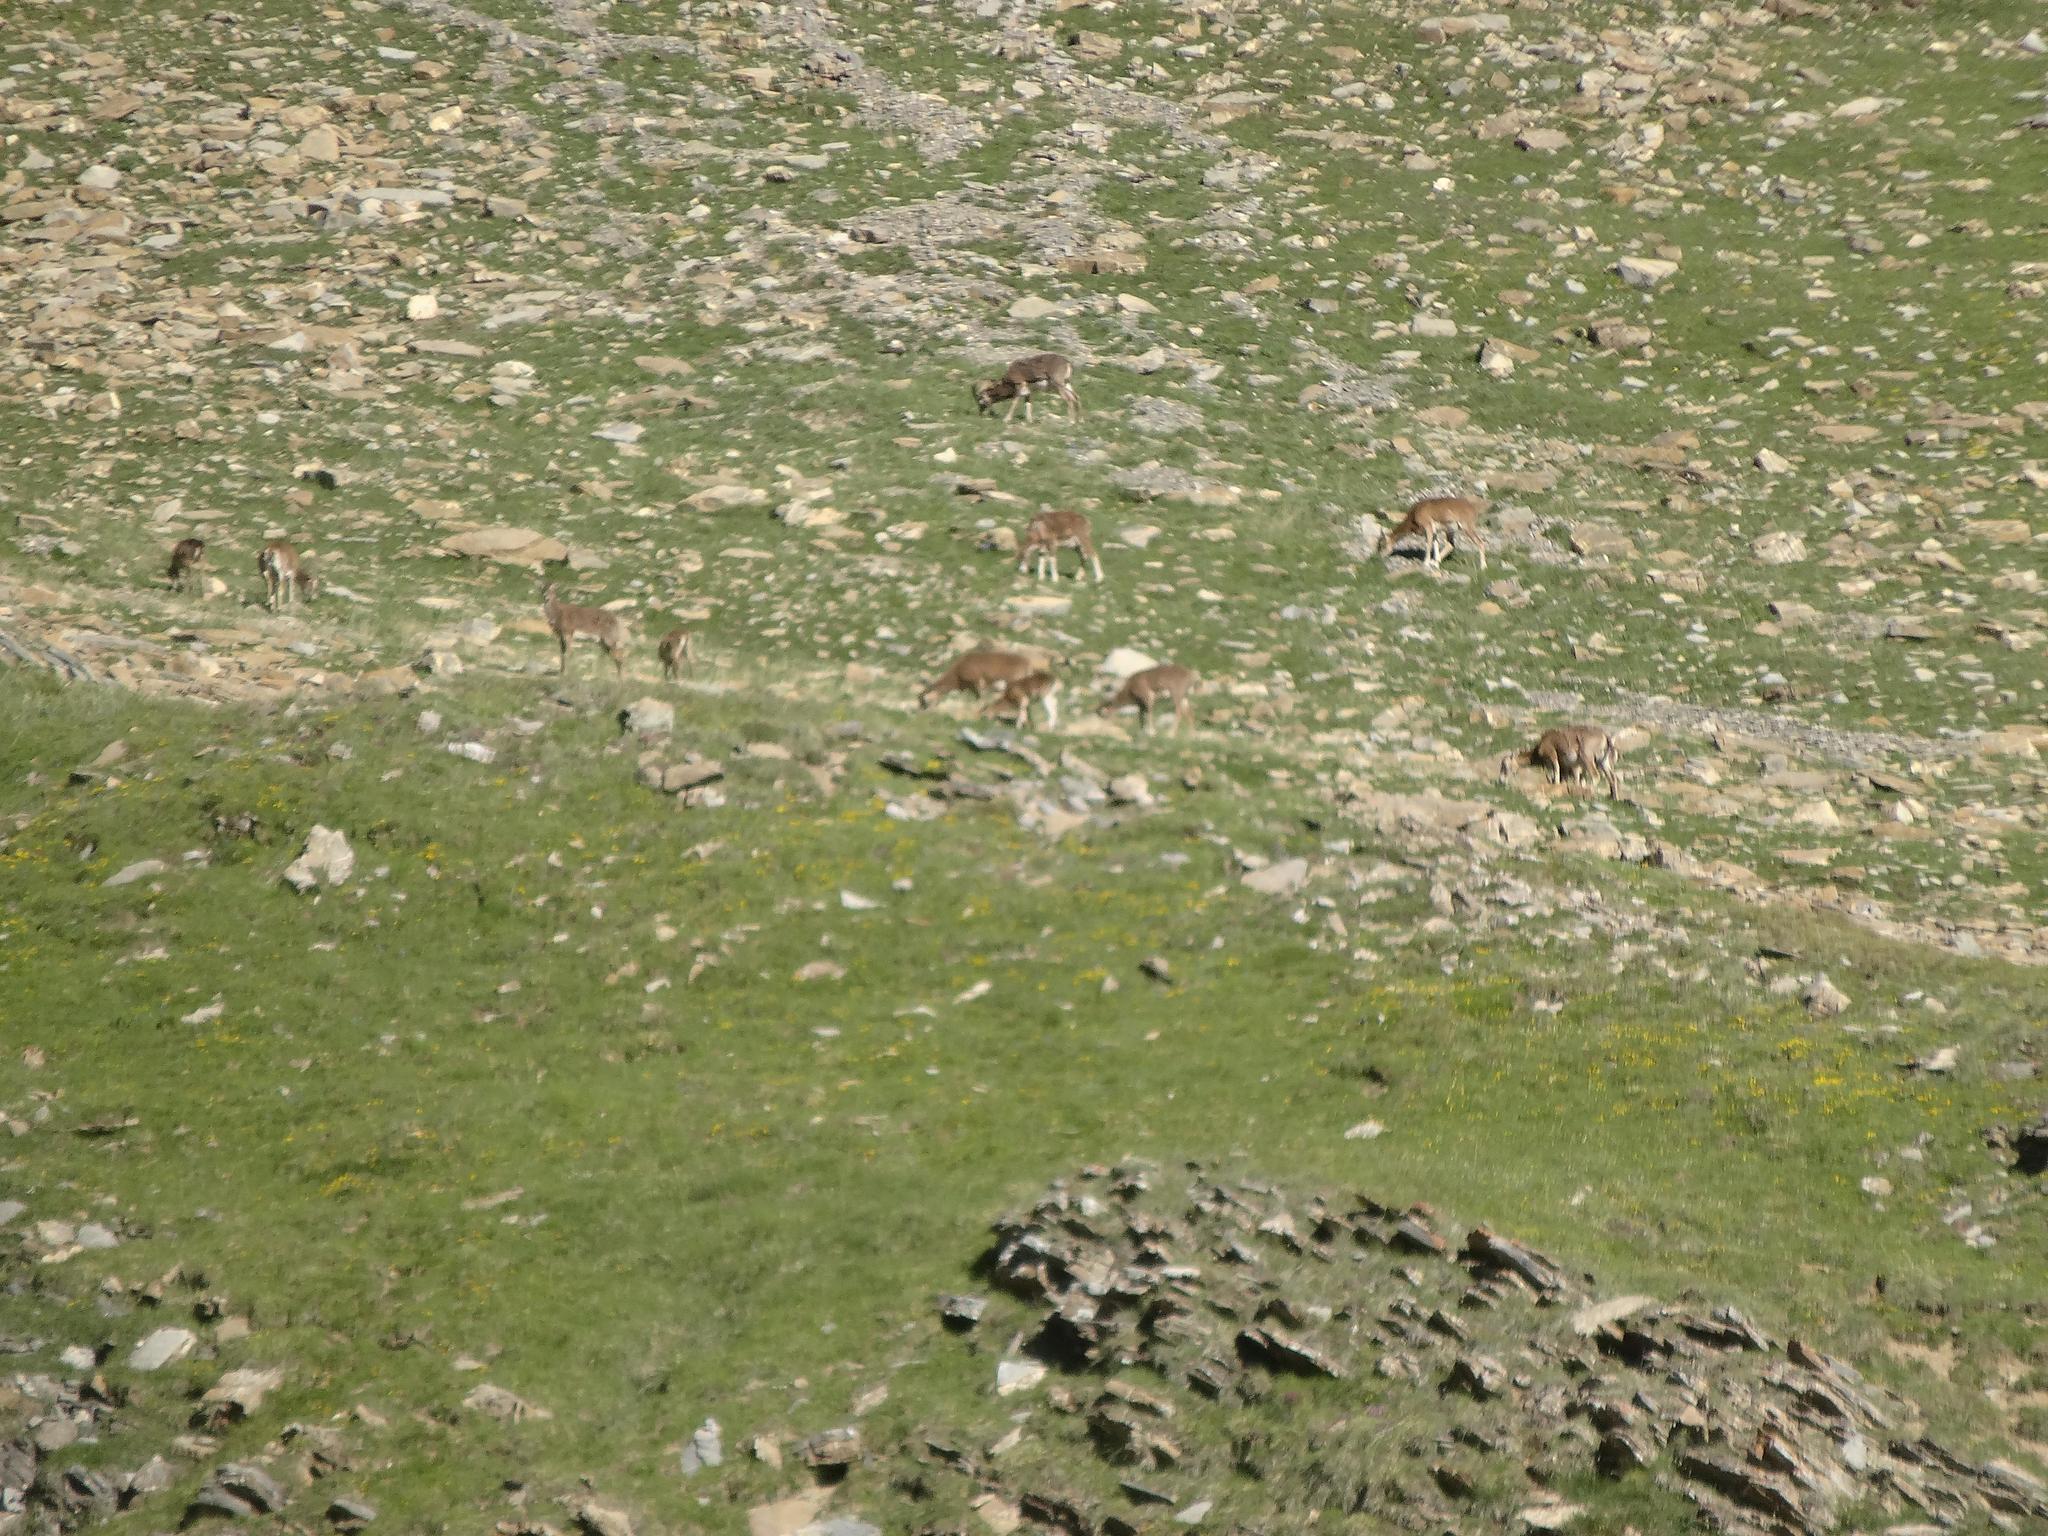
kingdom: Animalia
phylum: Chordata
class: Mammalia
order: Artiodactyla
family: Bovidae
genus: Ovis
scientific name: Ovis aries
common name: Domestic sheep
